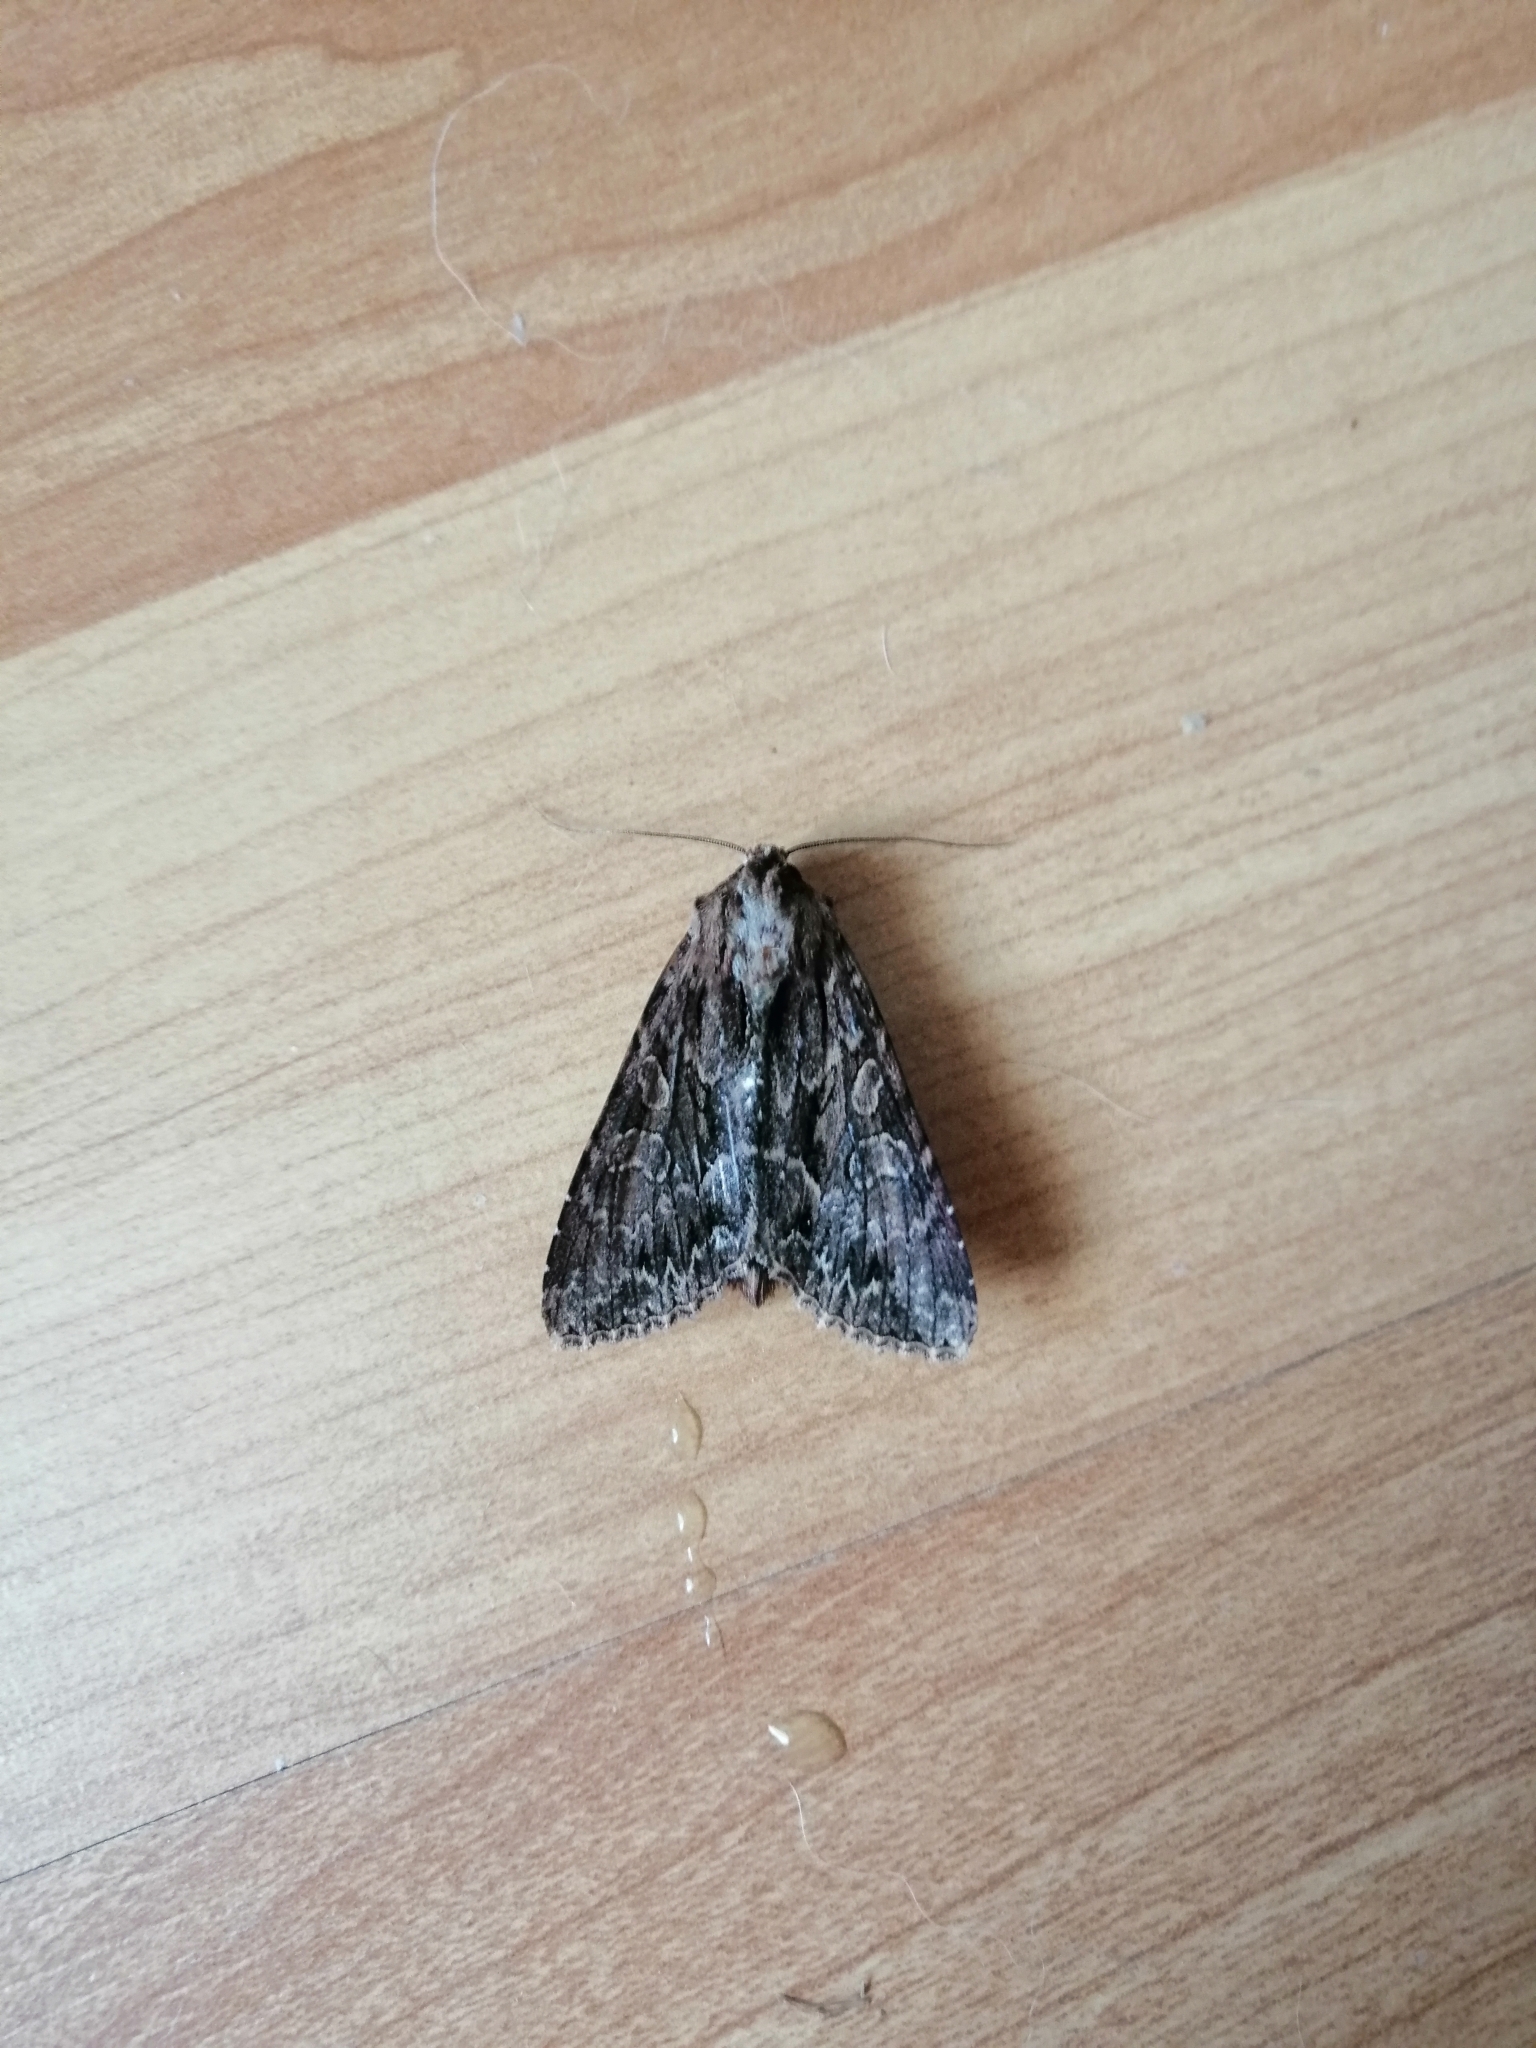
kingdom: Animalia
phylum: Arthropoda
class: Insecta
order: Lepidoptera
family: Noctuidae
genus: Apamea
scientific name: Apamea monoglypha
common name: Dark arches
